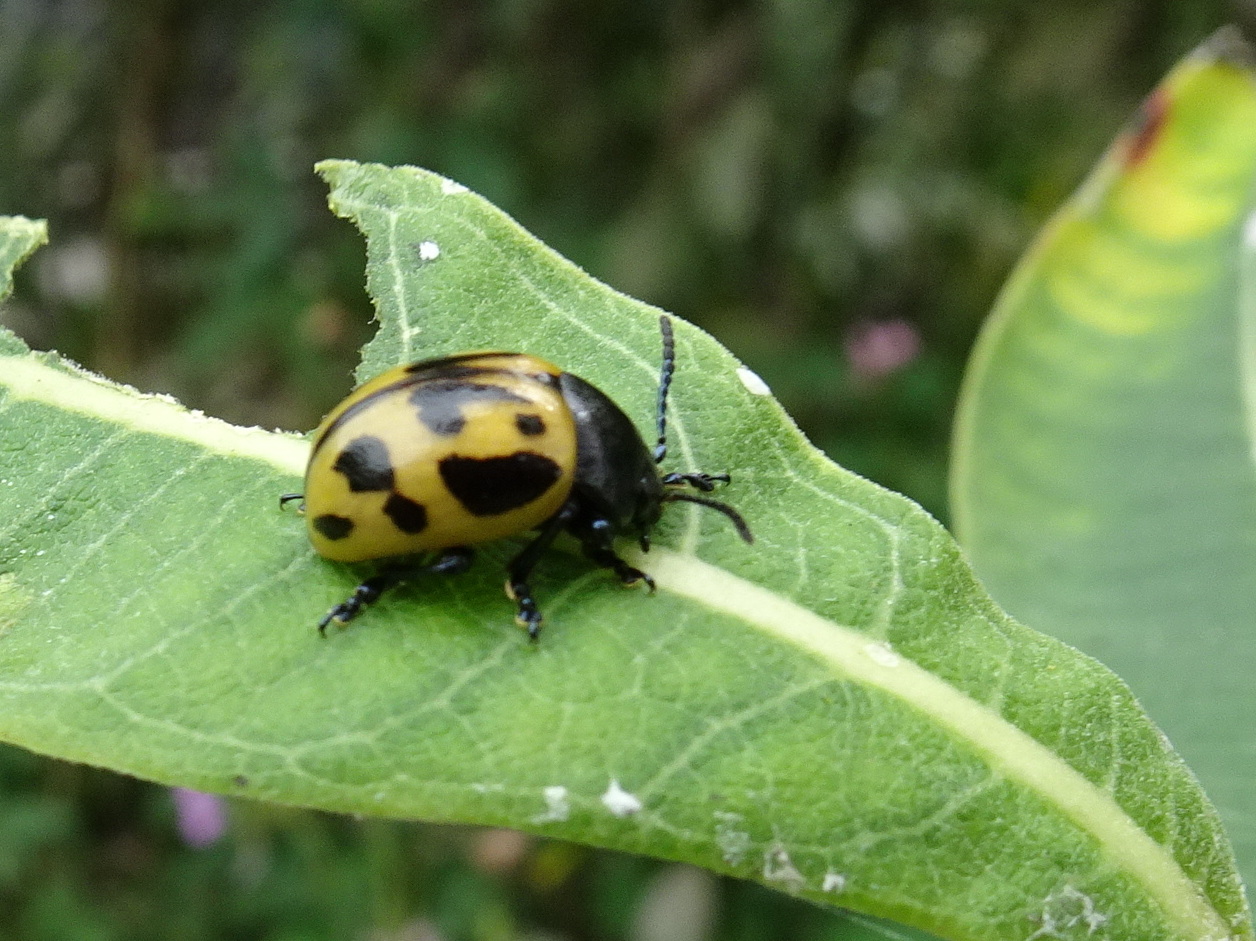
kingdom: Animalia
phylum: Arthropoda
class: Insecta
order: Coleoptera
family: Chrysomelidae
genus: Labidomera
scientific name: Labidomera clivicollis
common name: Swamp milkweed leaf beetle
